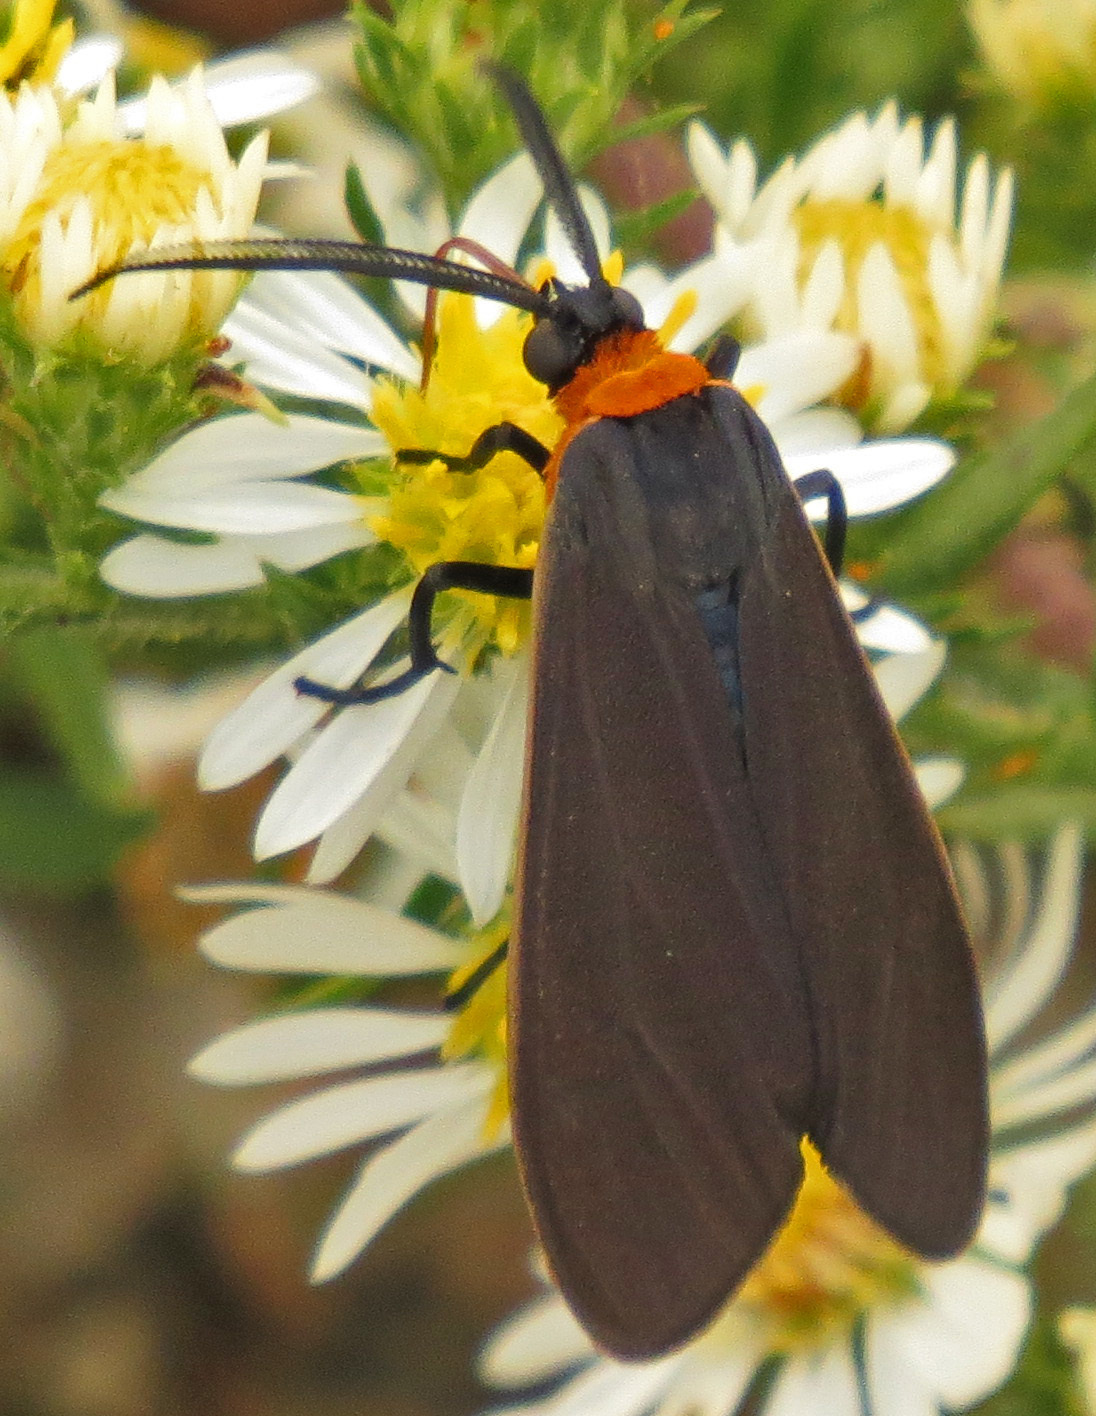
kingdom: Animalia
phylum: Arthropoda
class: Insecta
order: Lepidoptera
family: Erebidae
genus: Cisseps
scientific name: Cisseps fulvicollis
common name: Yellow-collared scape moth
